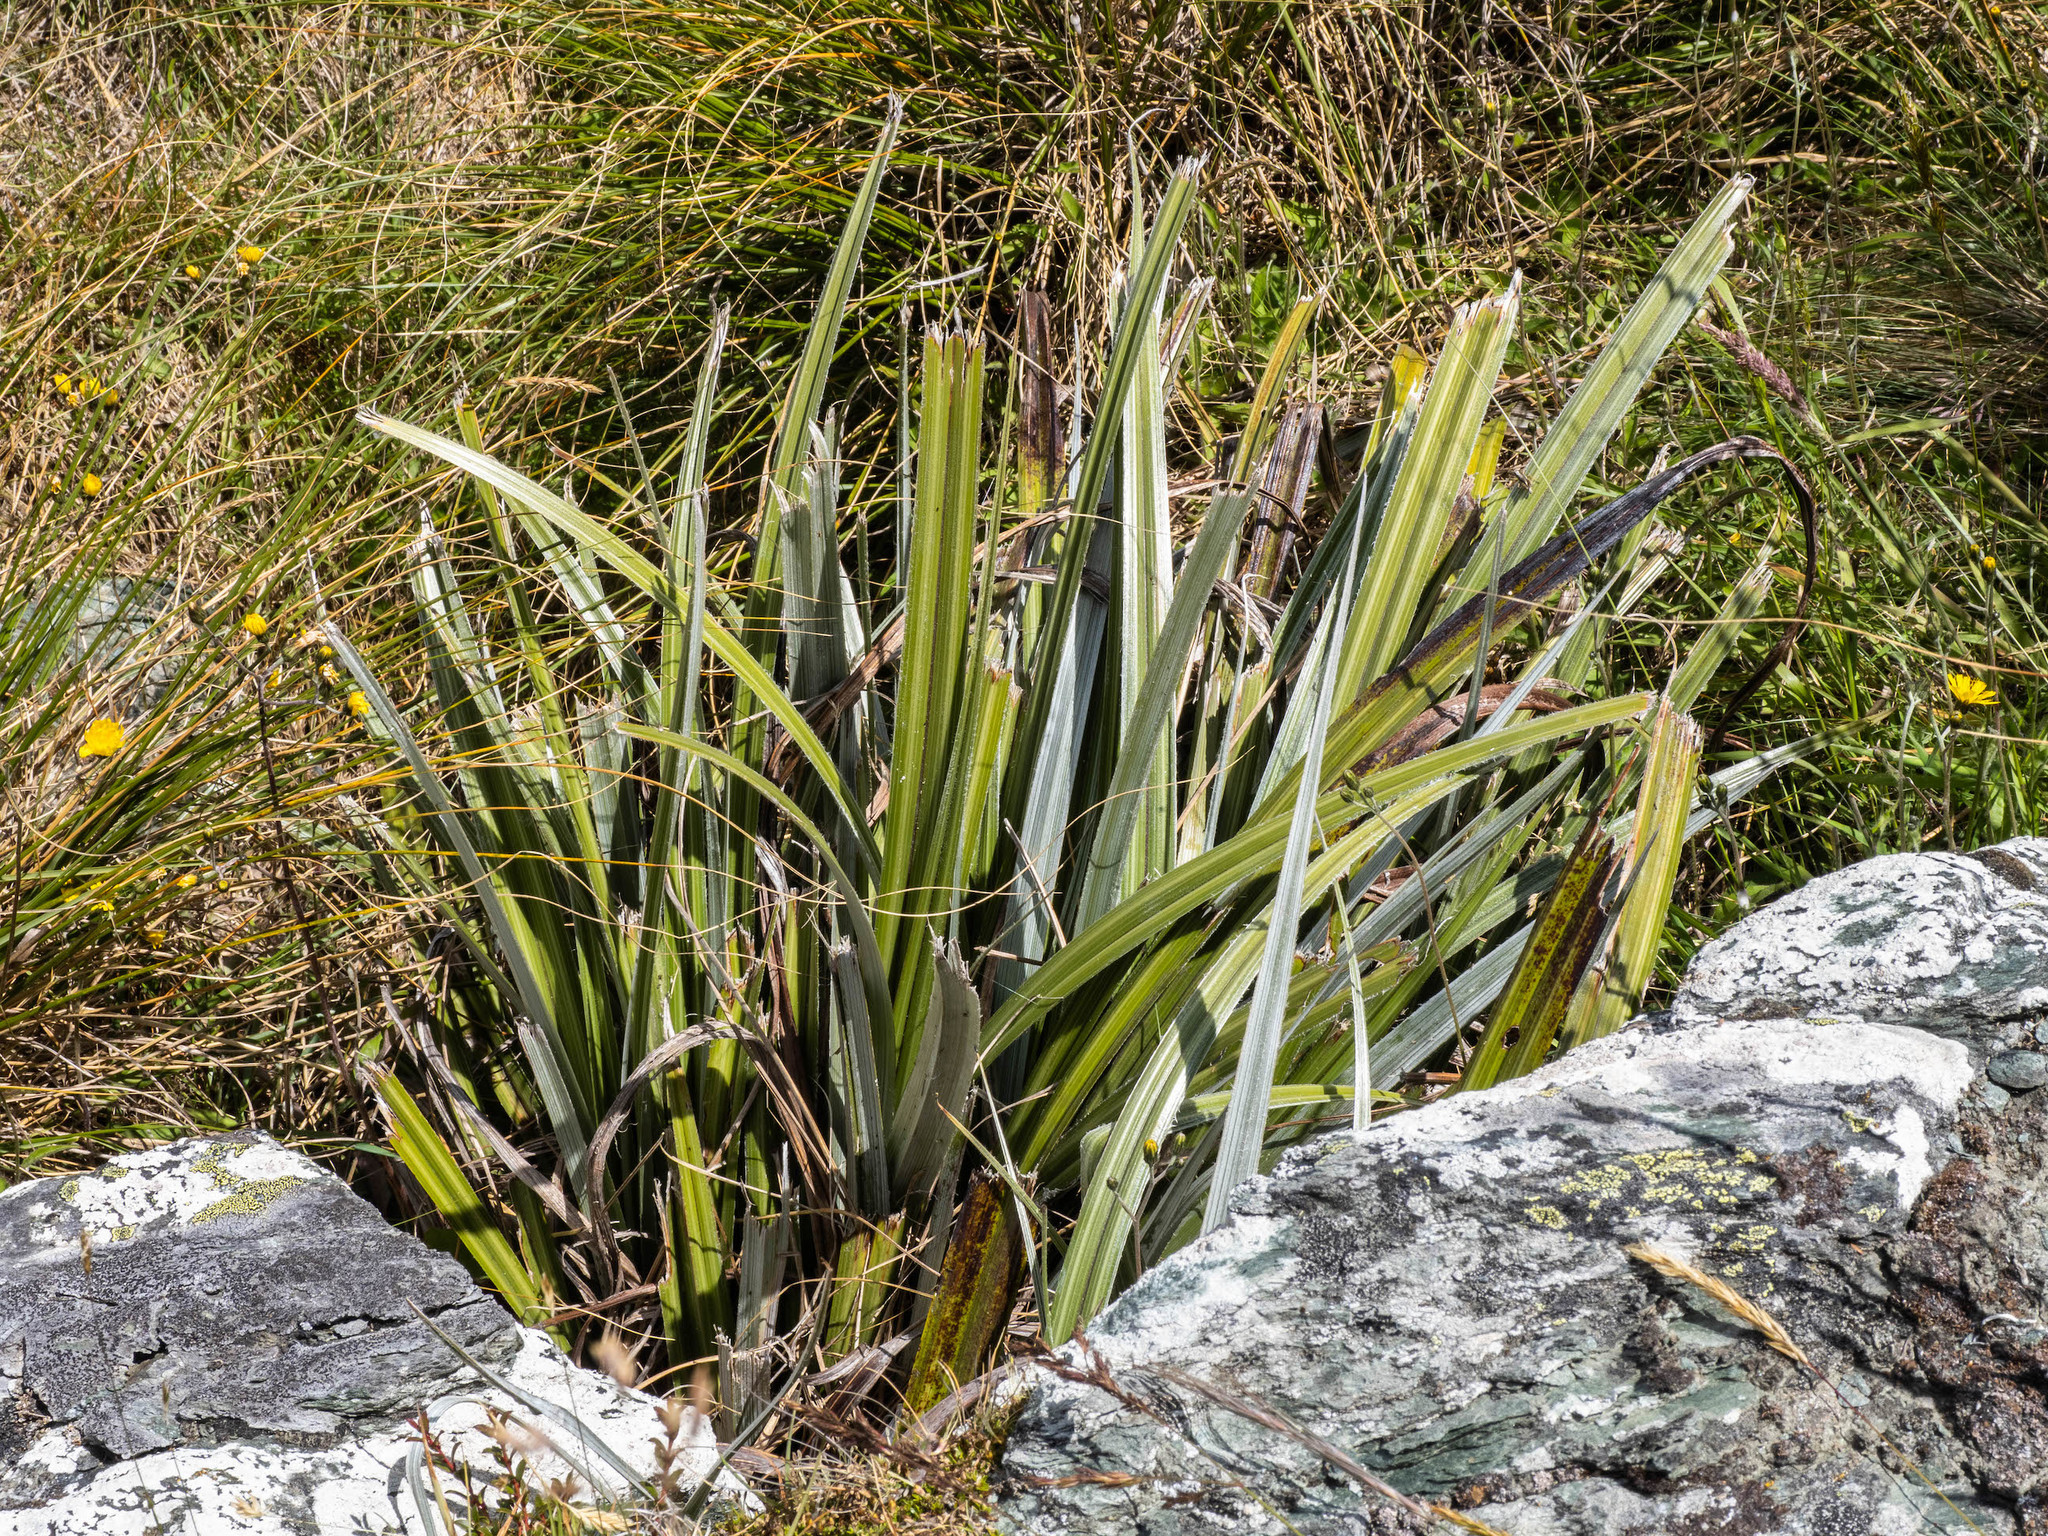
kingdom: Plantae
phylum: Tracheophyta
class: Liliopsida
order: Asparagales
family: Asteliaceae
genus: Astelia
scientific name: Astelia nervosa
